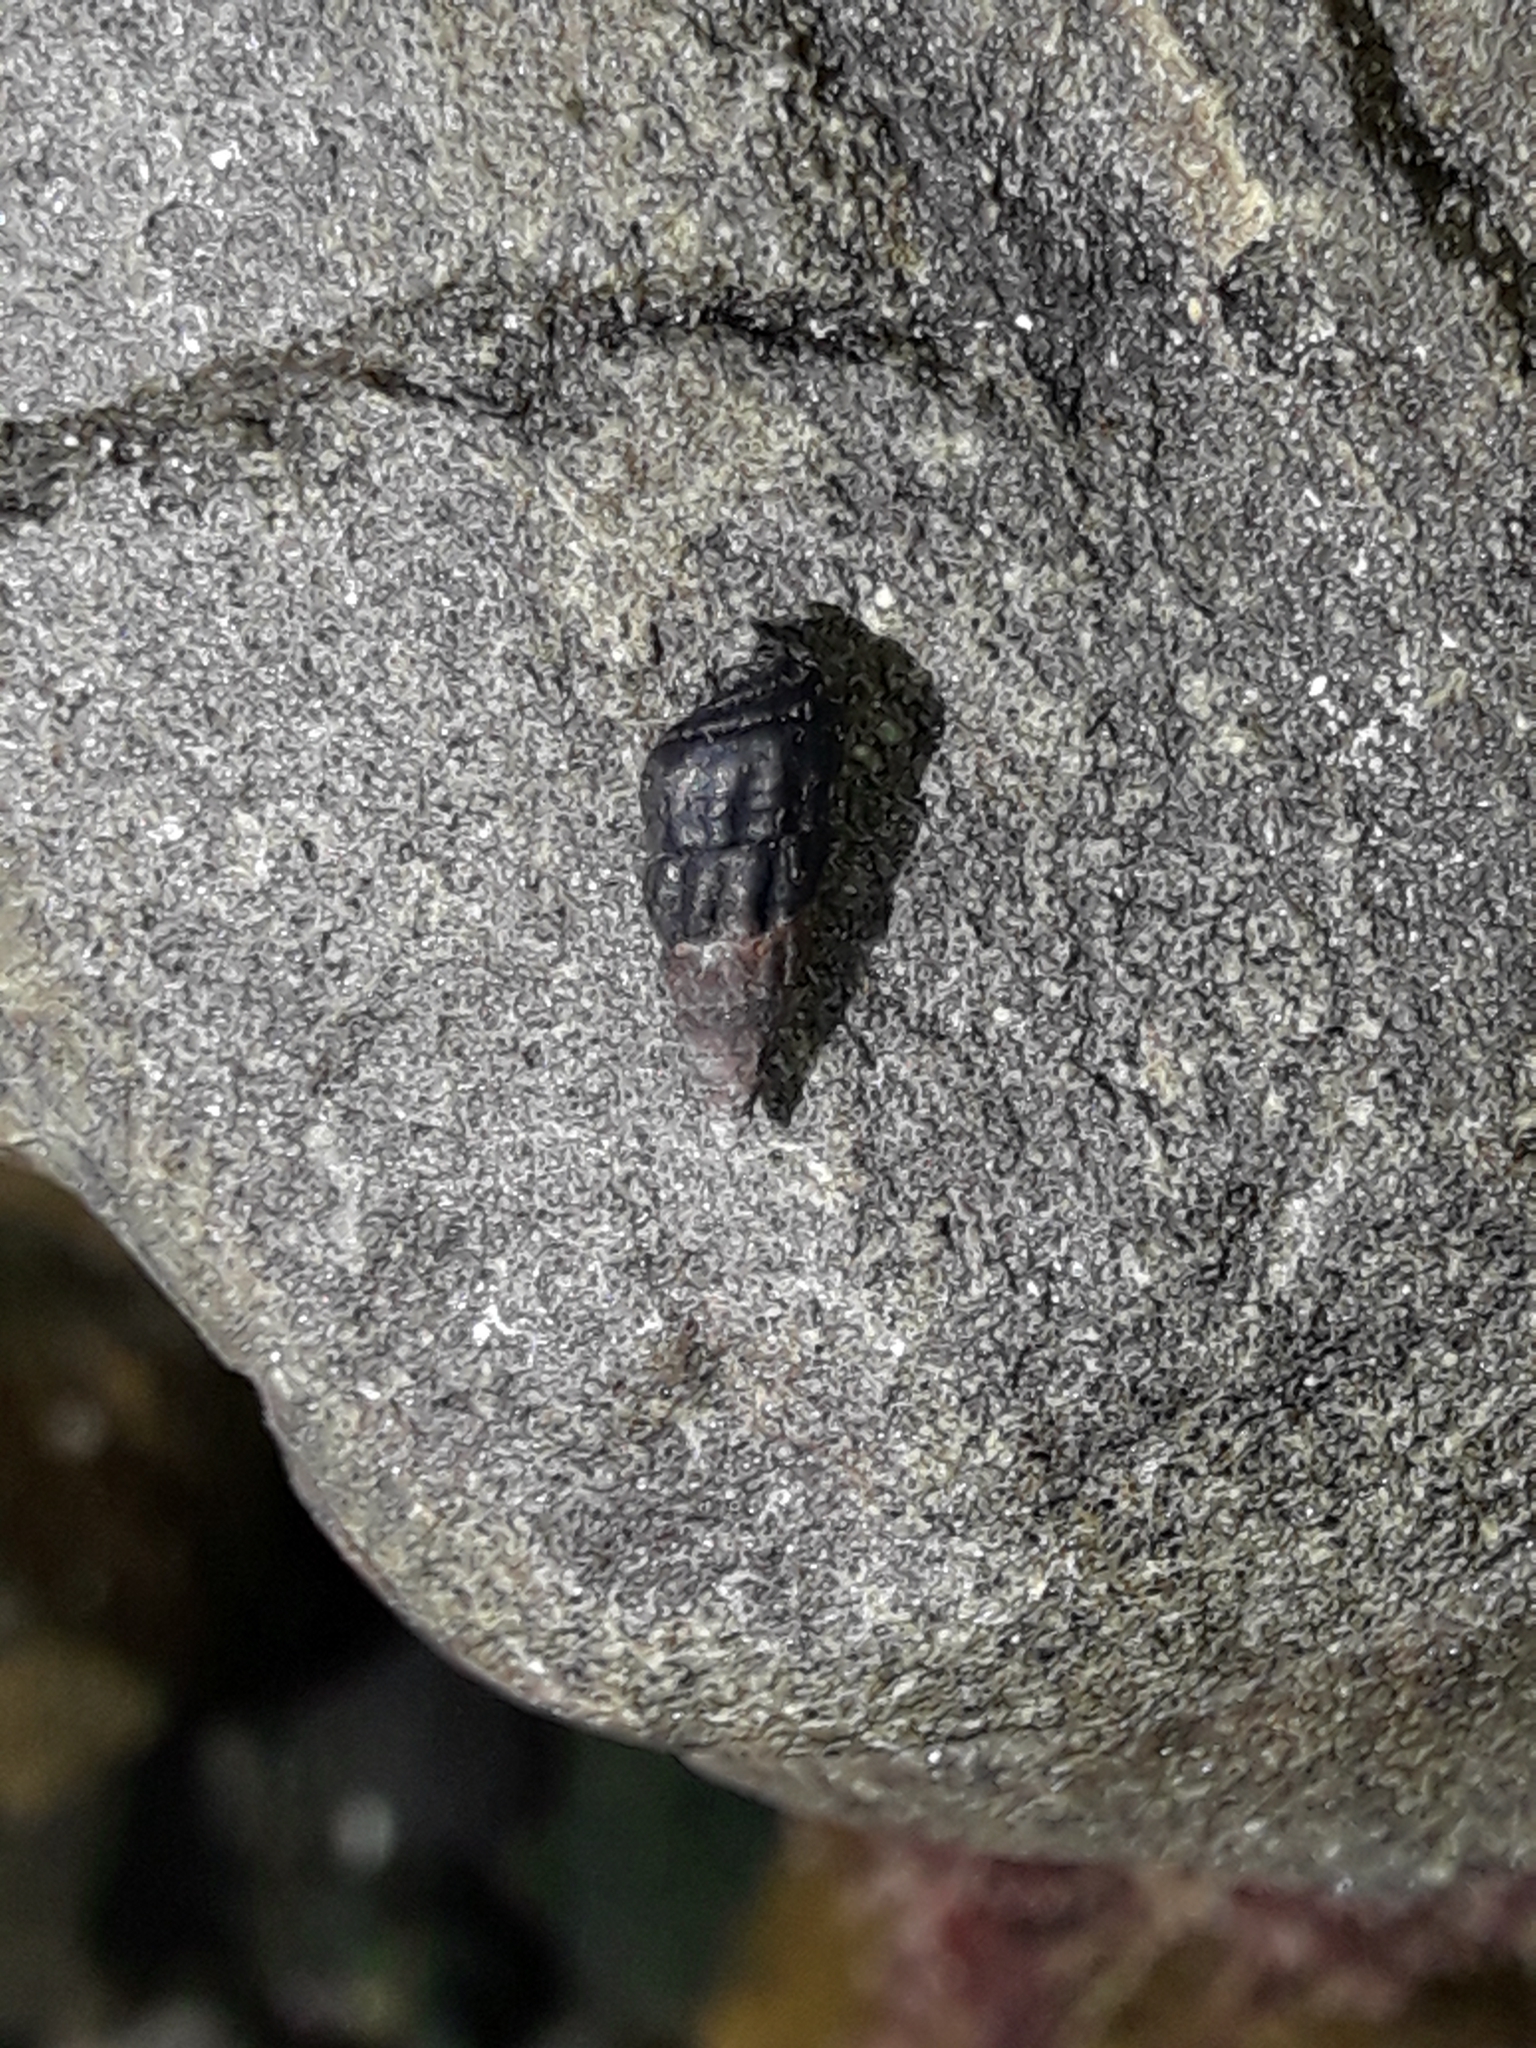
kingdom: Animalia
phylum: Mollusca
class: Gastropoda
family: Batillariidae
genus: Zeacumantus
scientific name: Zeacumantus subcarinatus
